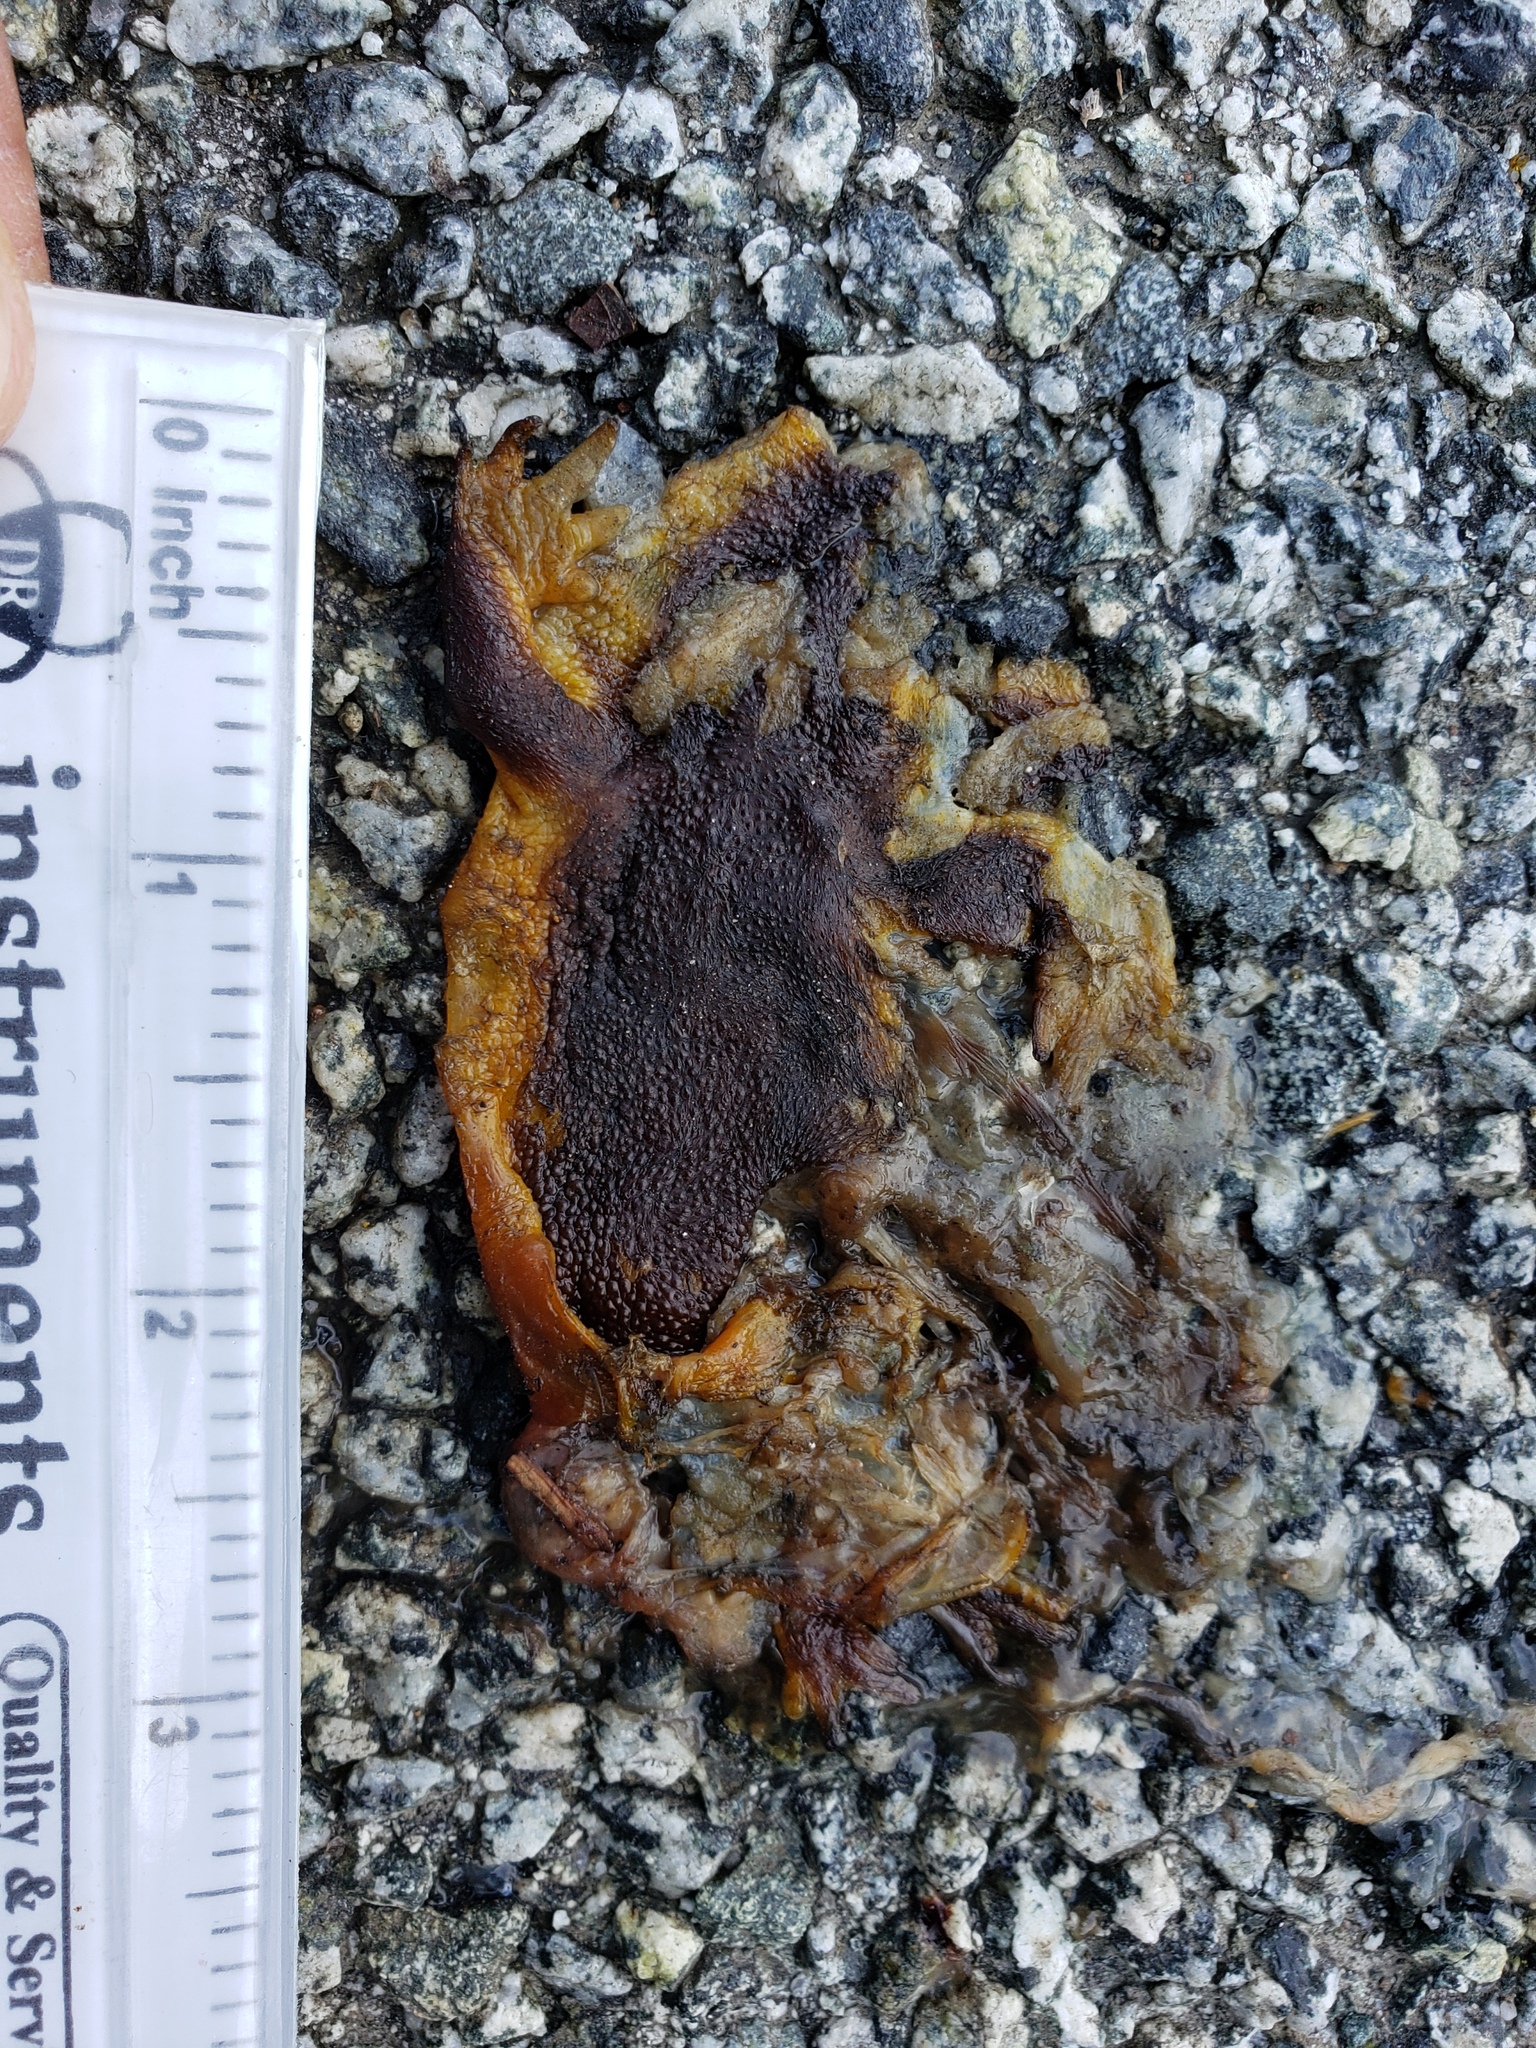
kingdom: Animalia
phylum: Chordata
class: Amphibia
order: Caudata
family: Salamandridae
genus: Taricha
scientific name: Taricha
